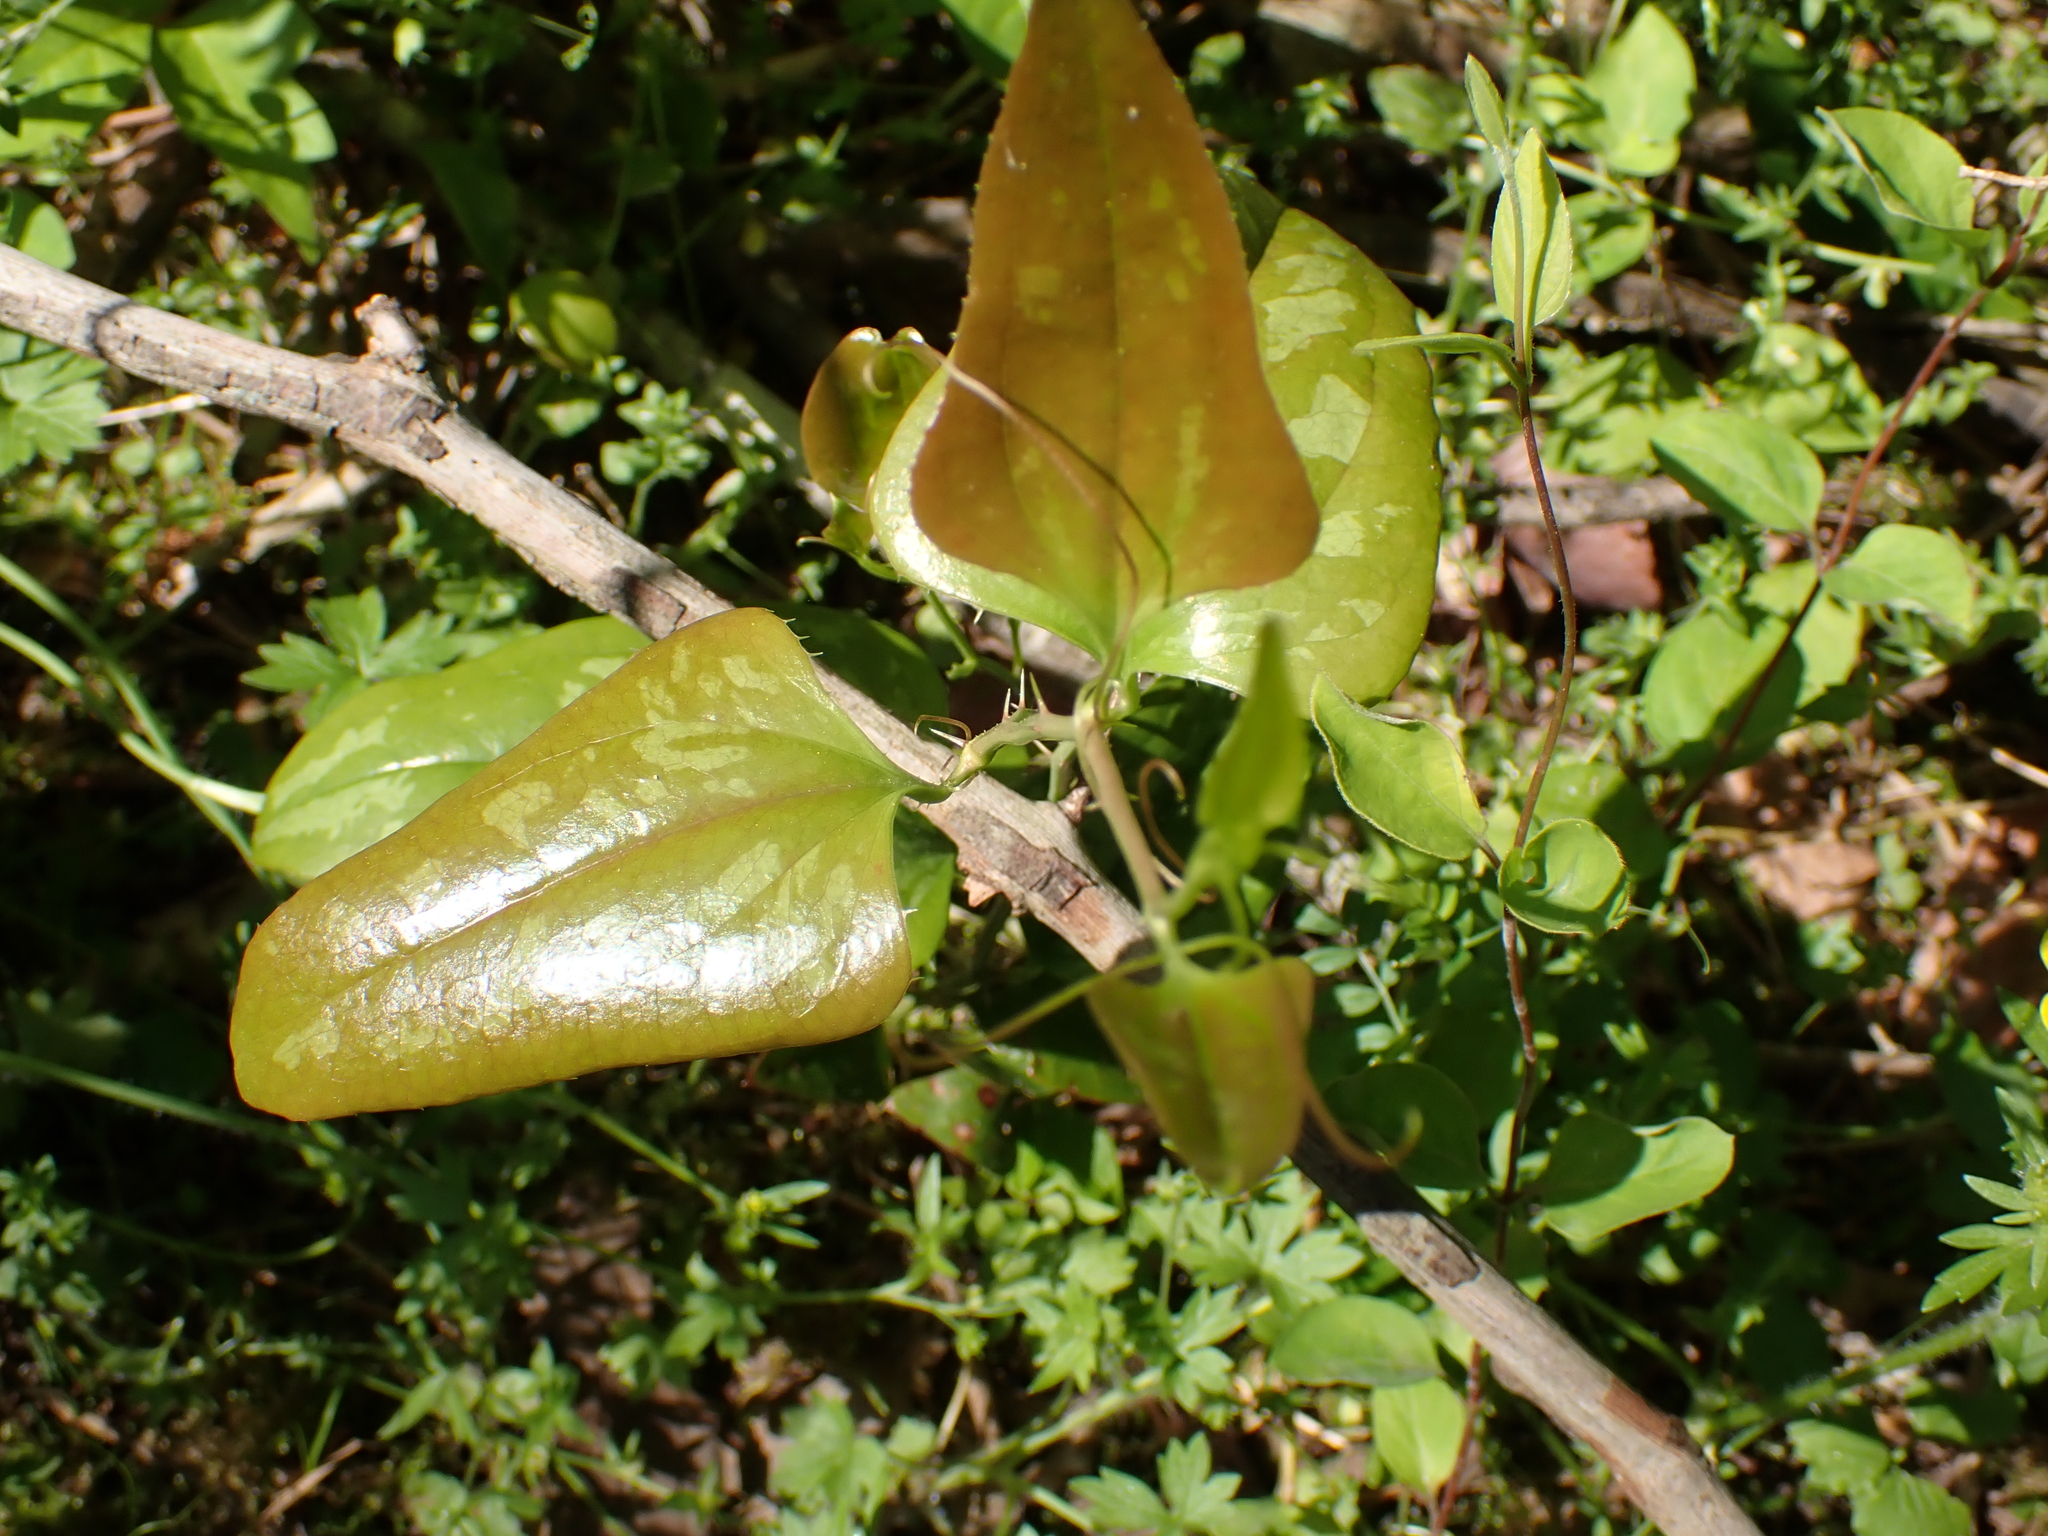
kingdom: Plantae
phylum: Tracheophyta
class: Liliopsida
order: Liliales
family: Smilacaceae
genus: Smilax
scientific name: Smilax bona-nox
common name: Catbrier
